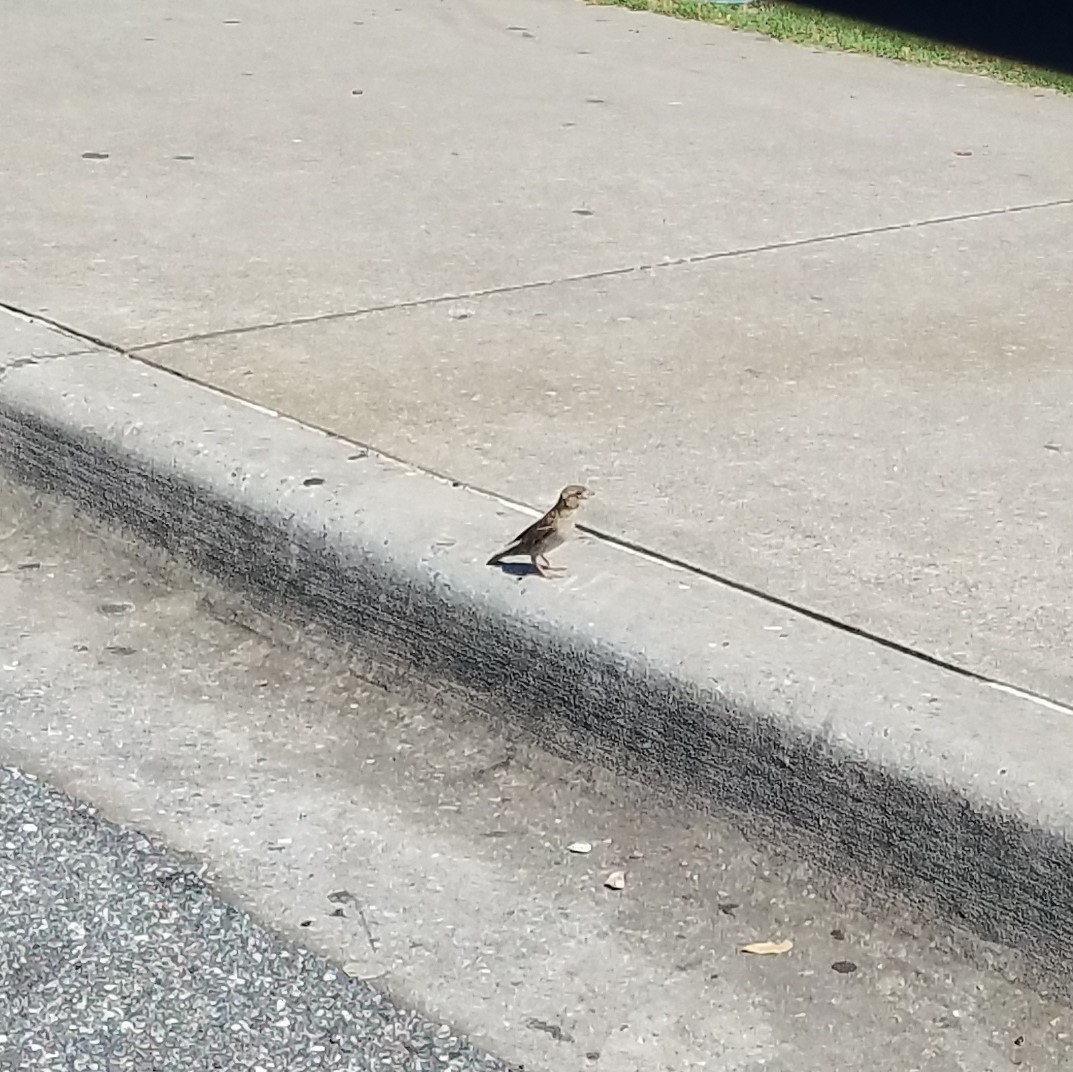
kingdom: Animalia
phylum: Chordata
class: Aves
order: Passeriformes
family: Passeridae
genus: Passer
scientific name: Passer domesticus
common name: House sparrow
